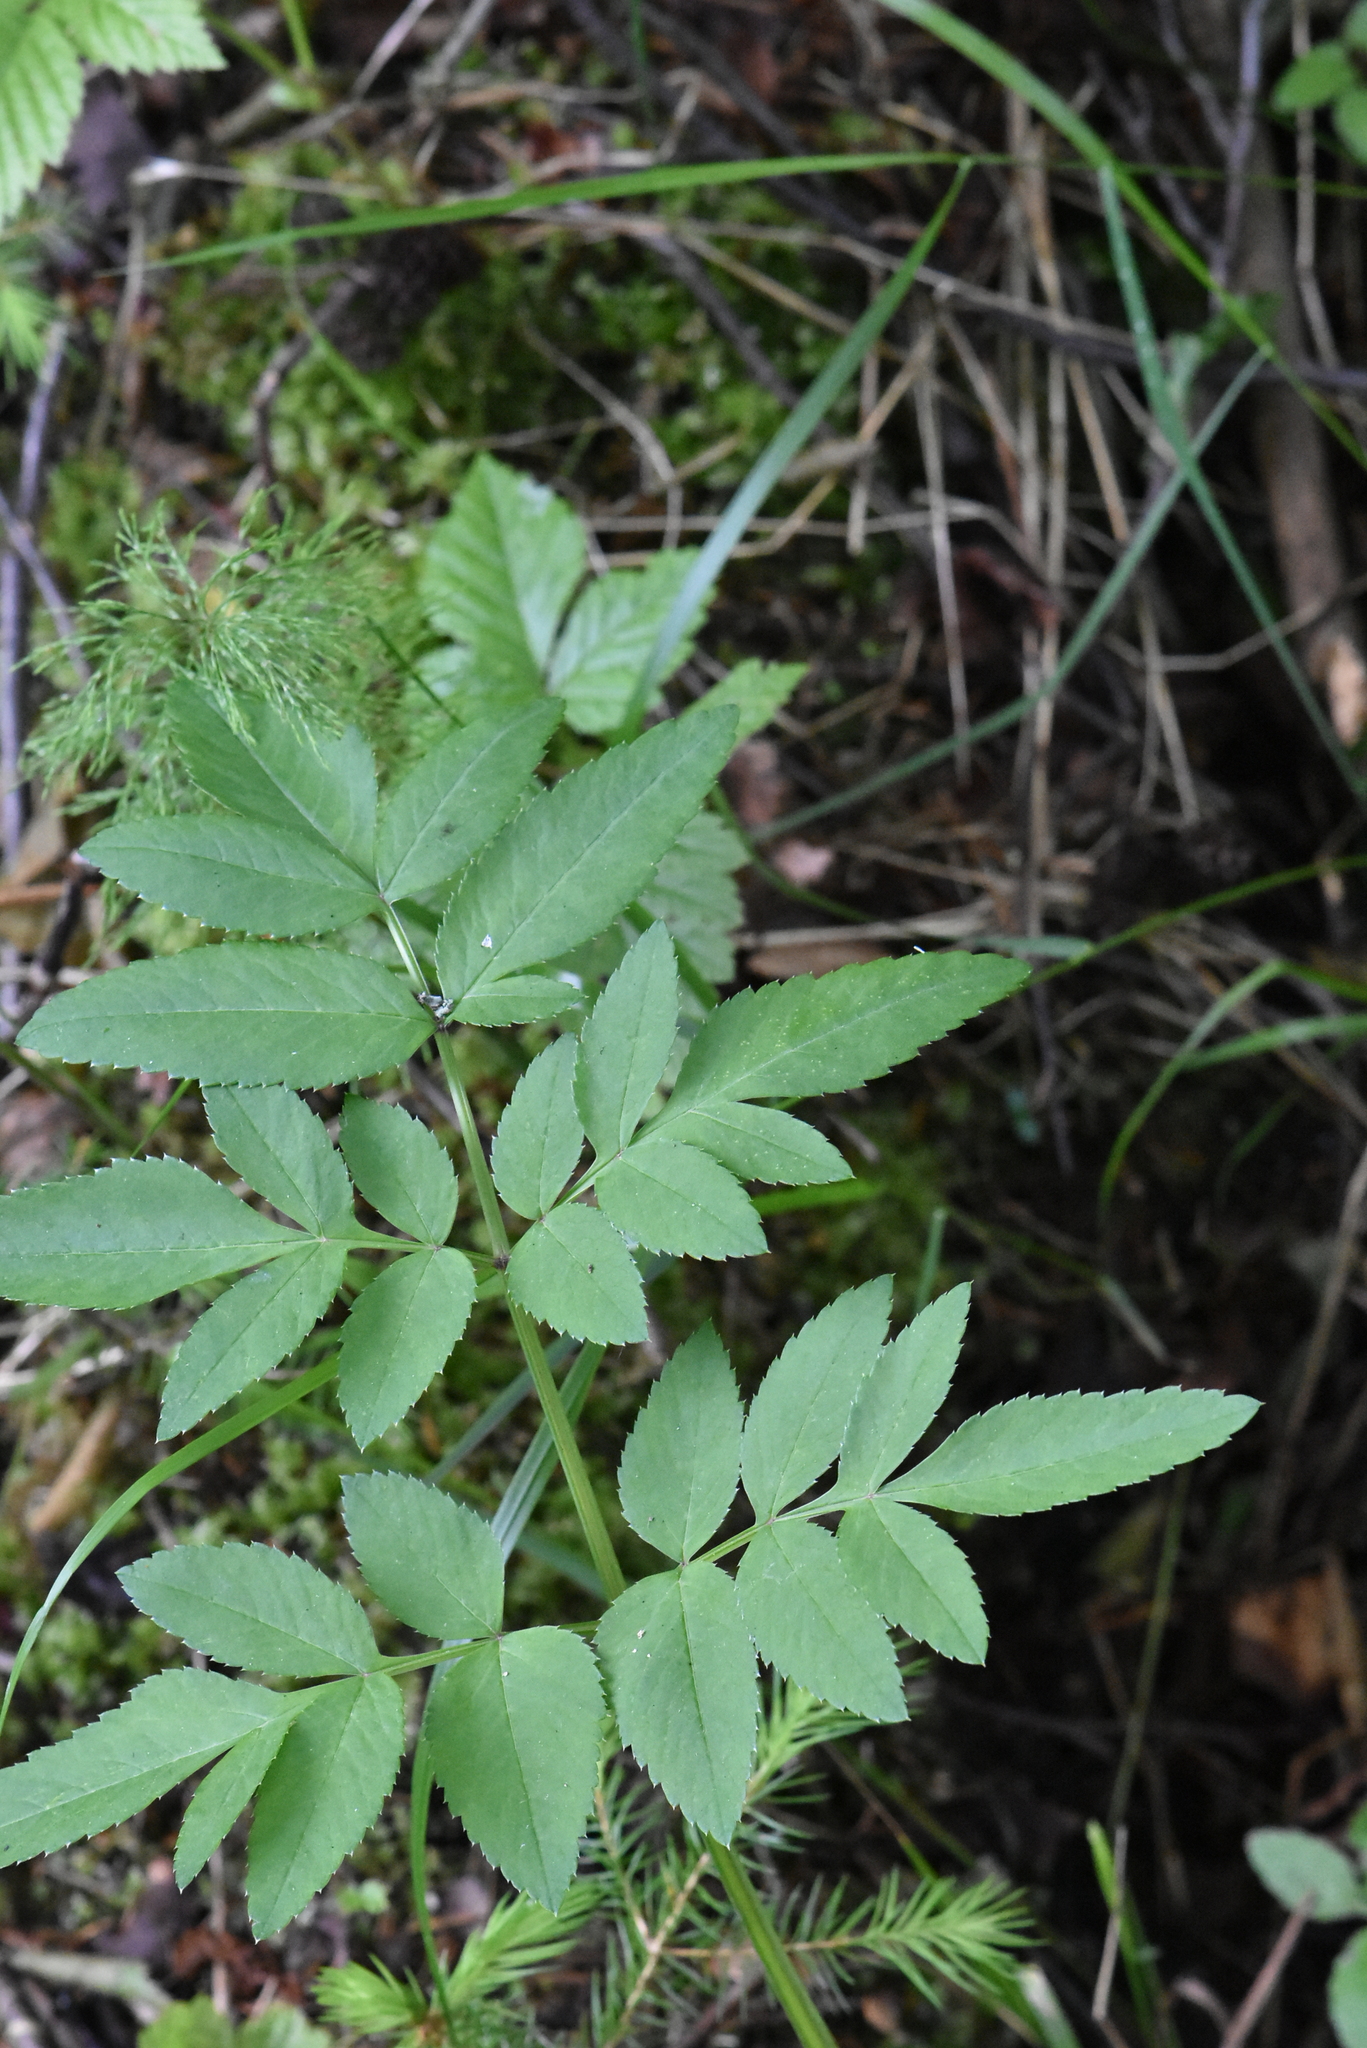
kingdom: Plantae
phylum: Tracheophyta
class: Magnoliopsida
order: Apiales
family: Apiaceae
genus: Angelica
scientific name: Angelica sylvestris
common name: Wild angelica
